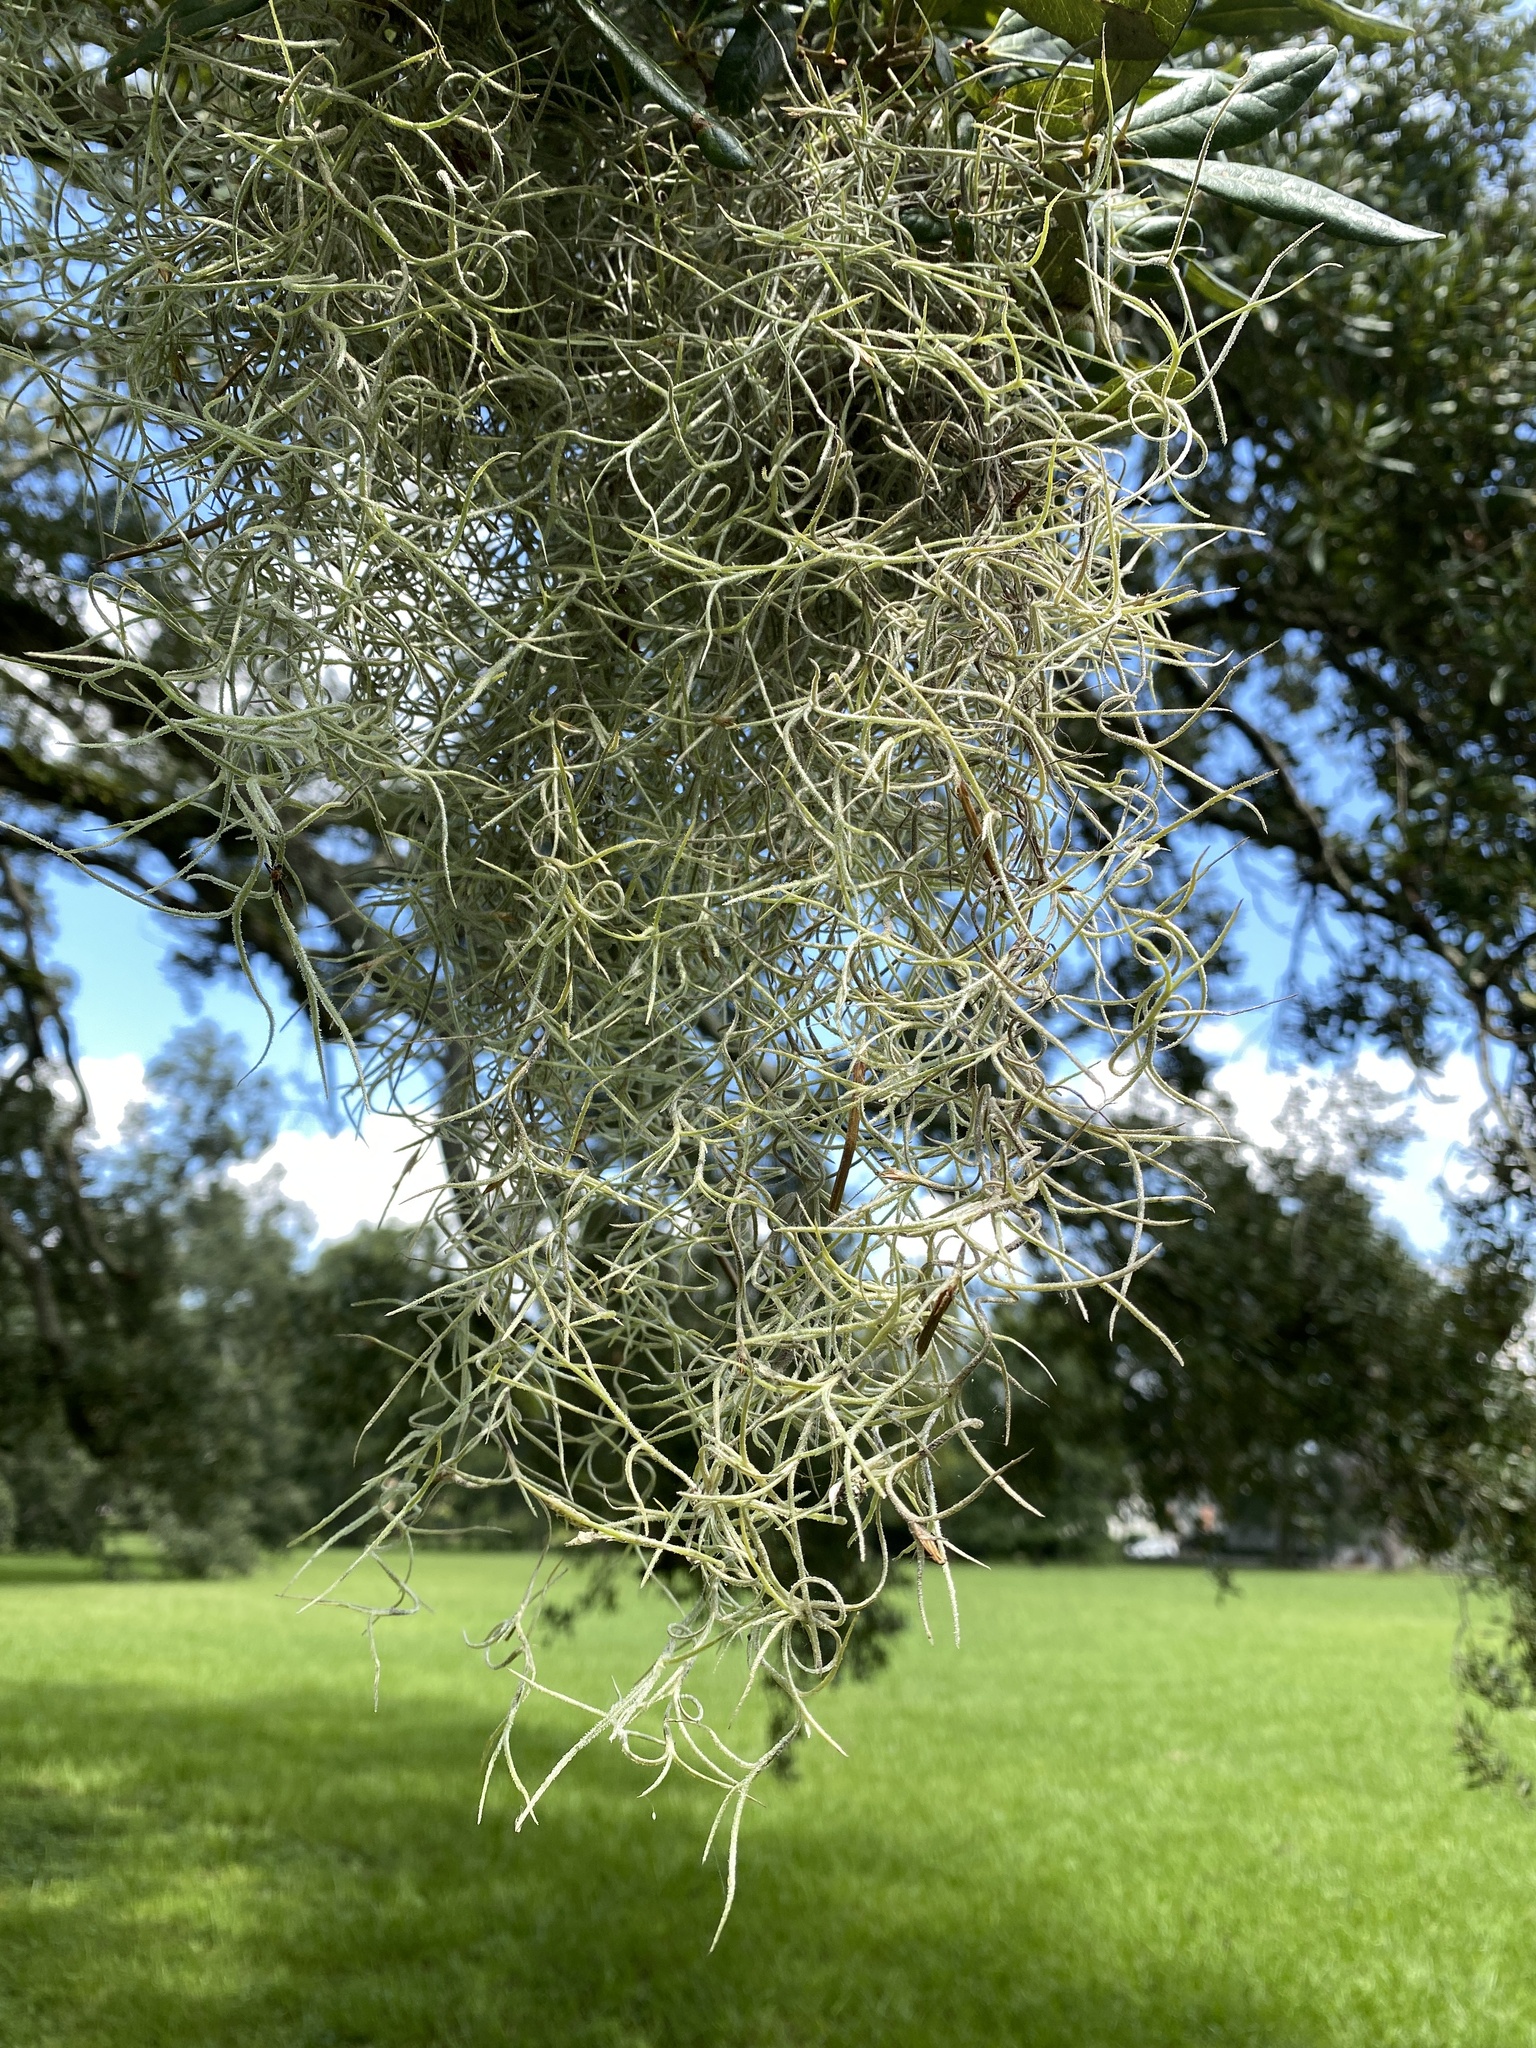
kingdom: Plantae
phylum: Tracheophyta
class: Liliopsida
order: Poales
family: Bromeliaceae
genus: Tillandsia
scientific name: Tillandsia usneoides
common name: Spanish moss
